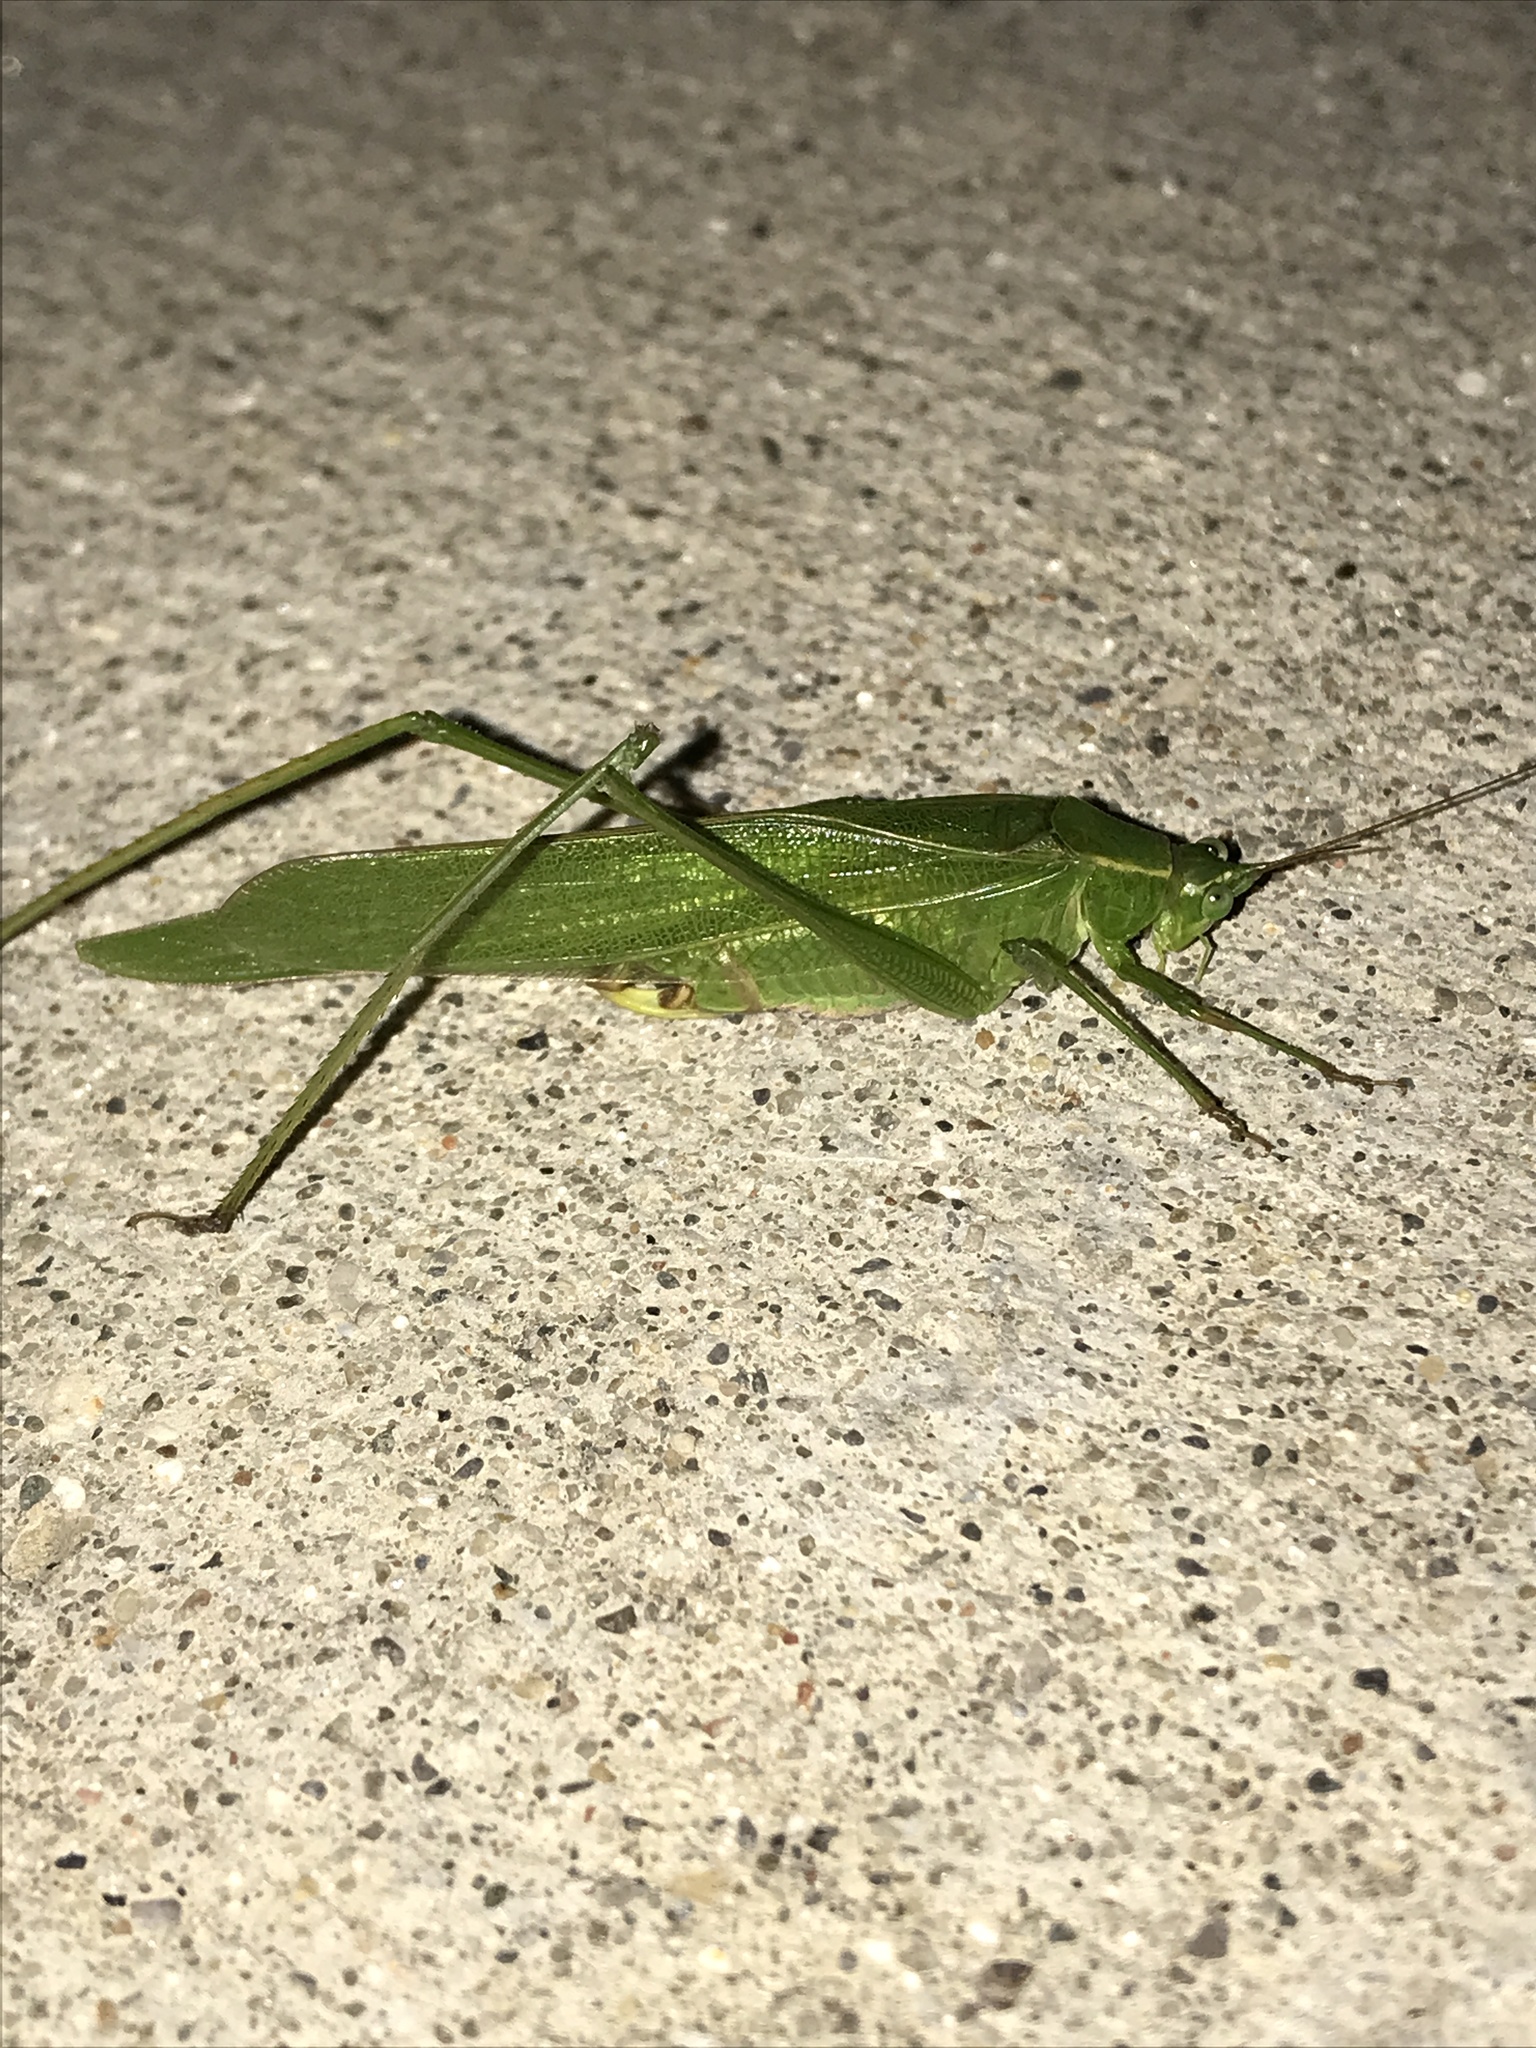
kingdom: Animalia
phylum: Arthropoda
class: Insecta
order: Orthoptera
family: Tettigoniidae
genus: Scudderia
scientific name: Scudderia furcata
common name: Fork-tailed bush katydid
